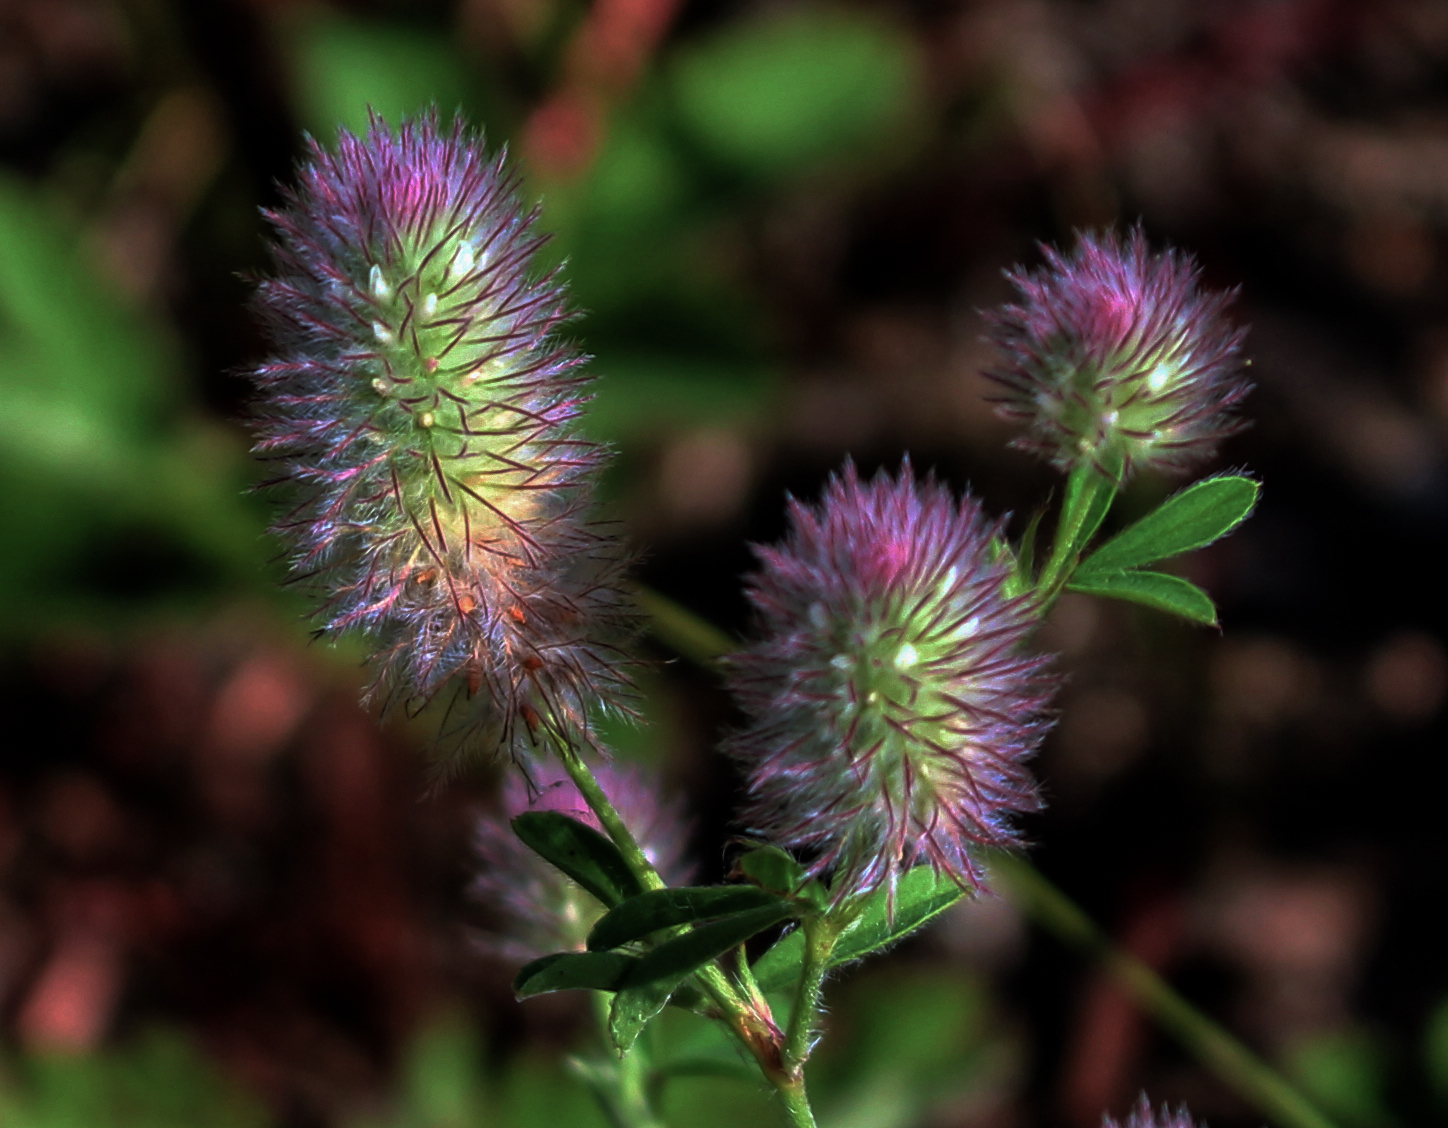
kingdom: Plantae
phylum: Tracheophyta
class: Magnoliopsida
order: Fabales
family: Fabaceae
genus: Trifolium
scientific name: Trifolium arvense
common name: Hare's-foot clover
